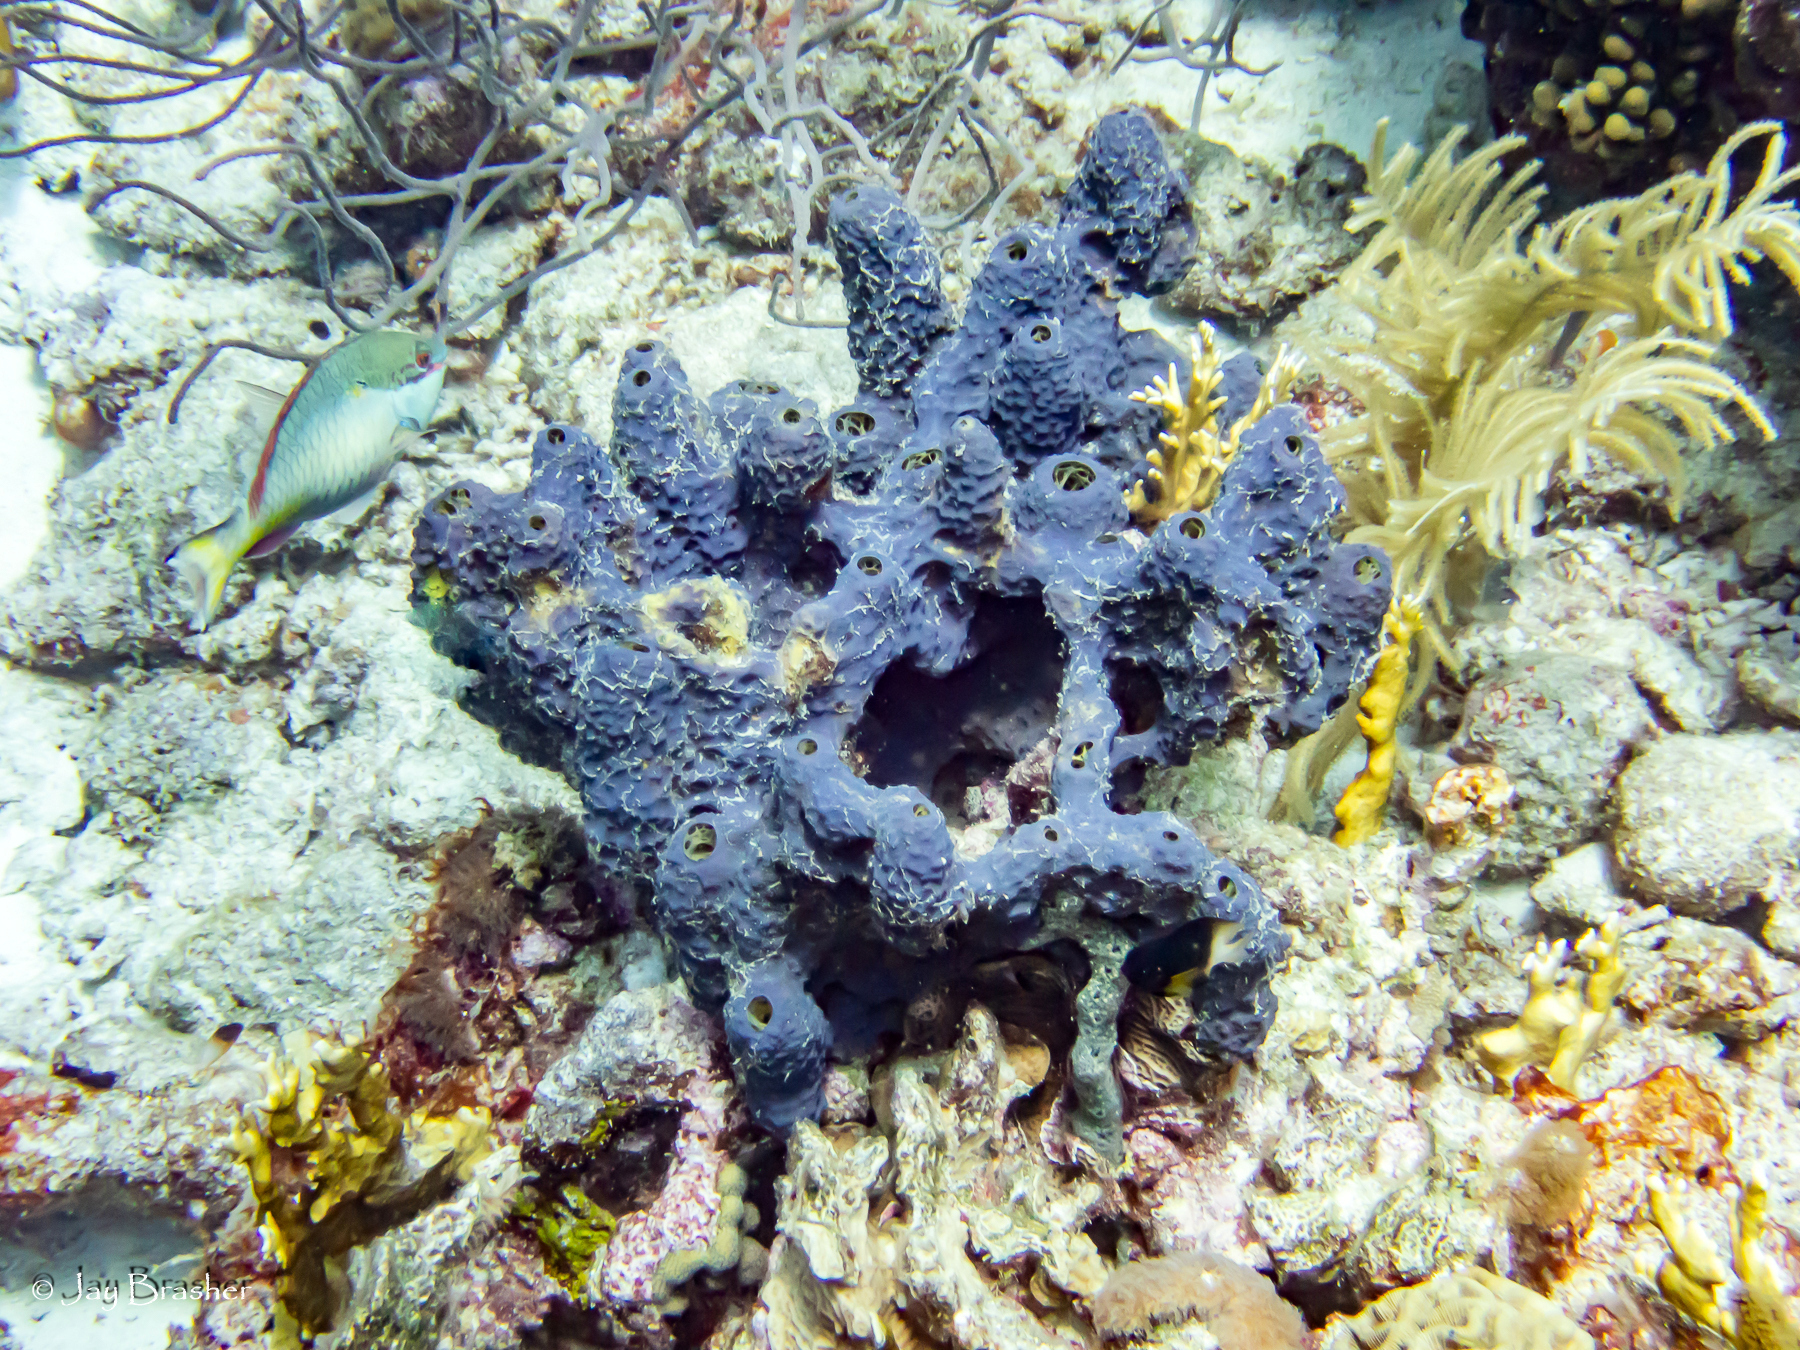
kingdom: Animalia
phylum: Chordata
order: Perciformes
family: Scaridae
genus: Sparisoma
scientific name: Sparisoma aurofrenatum
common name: Redband parrotfish
